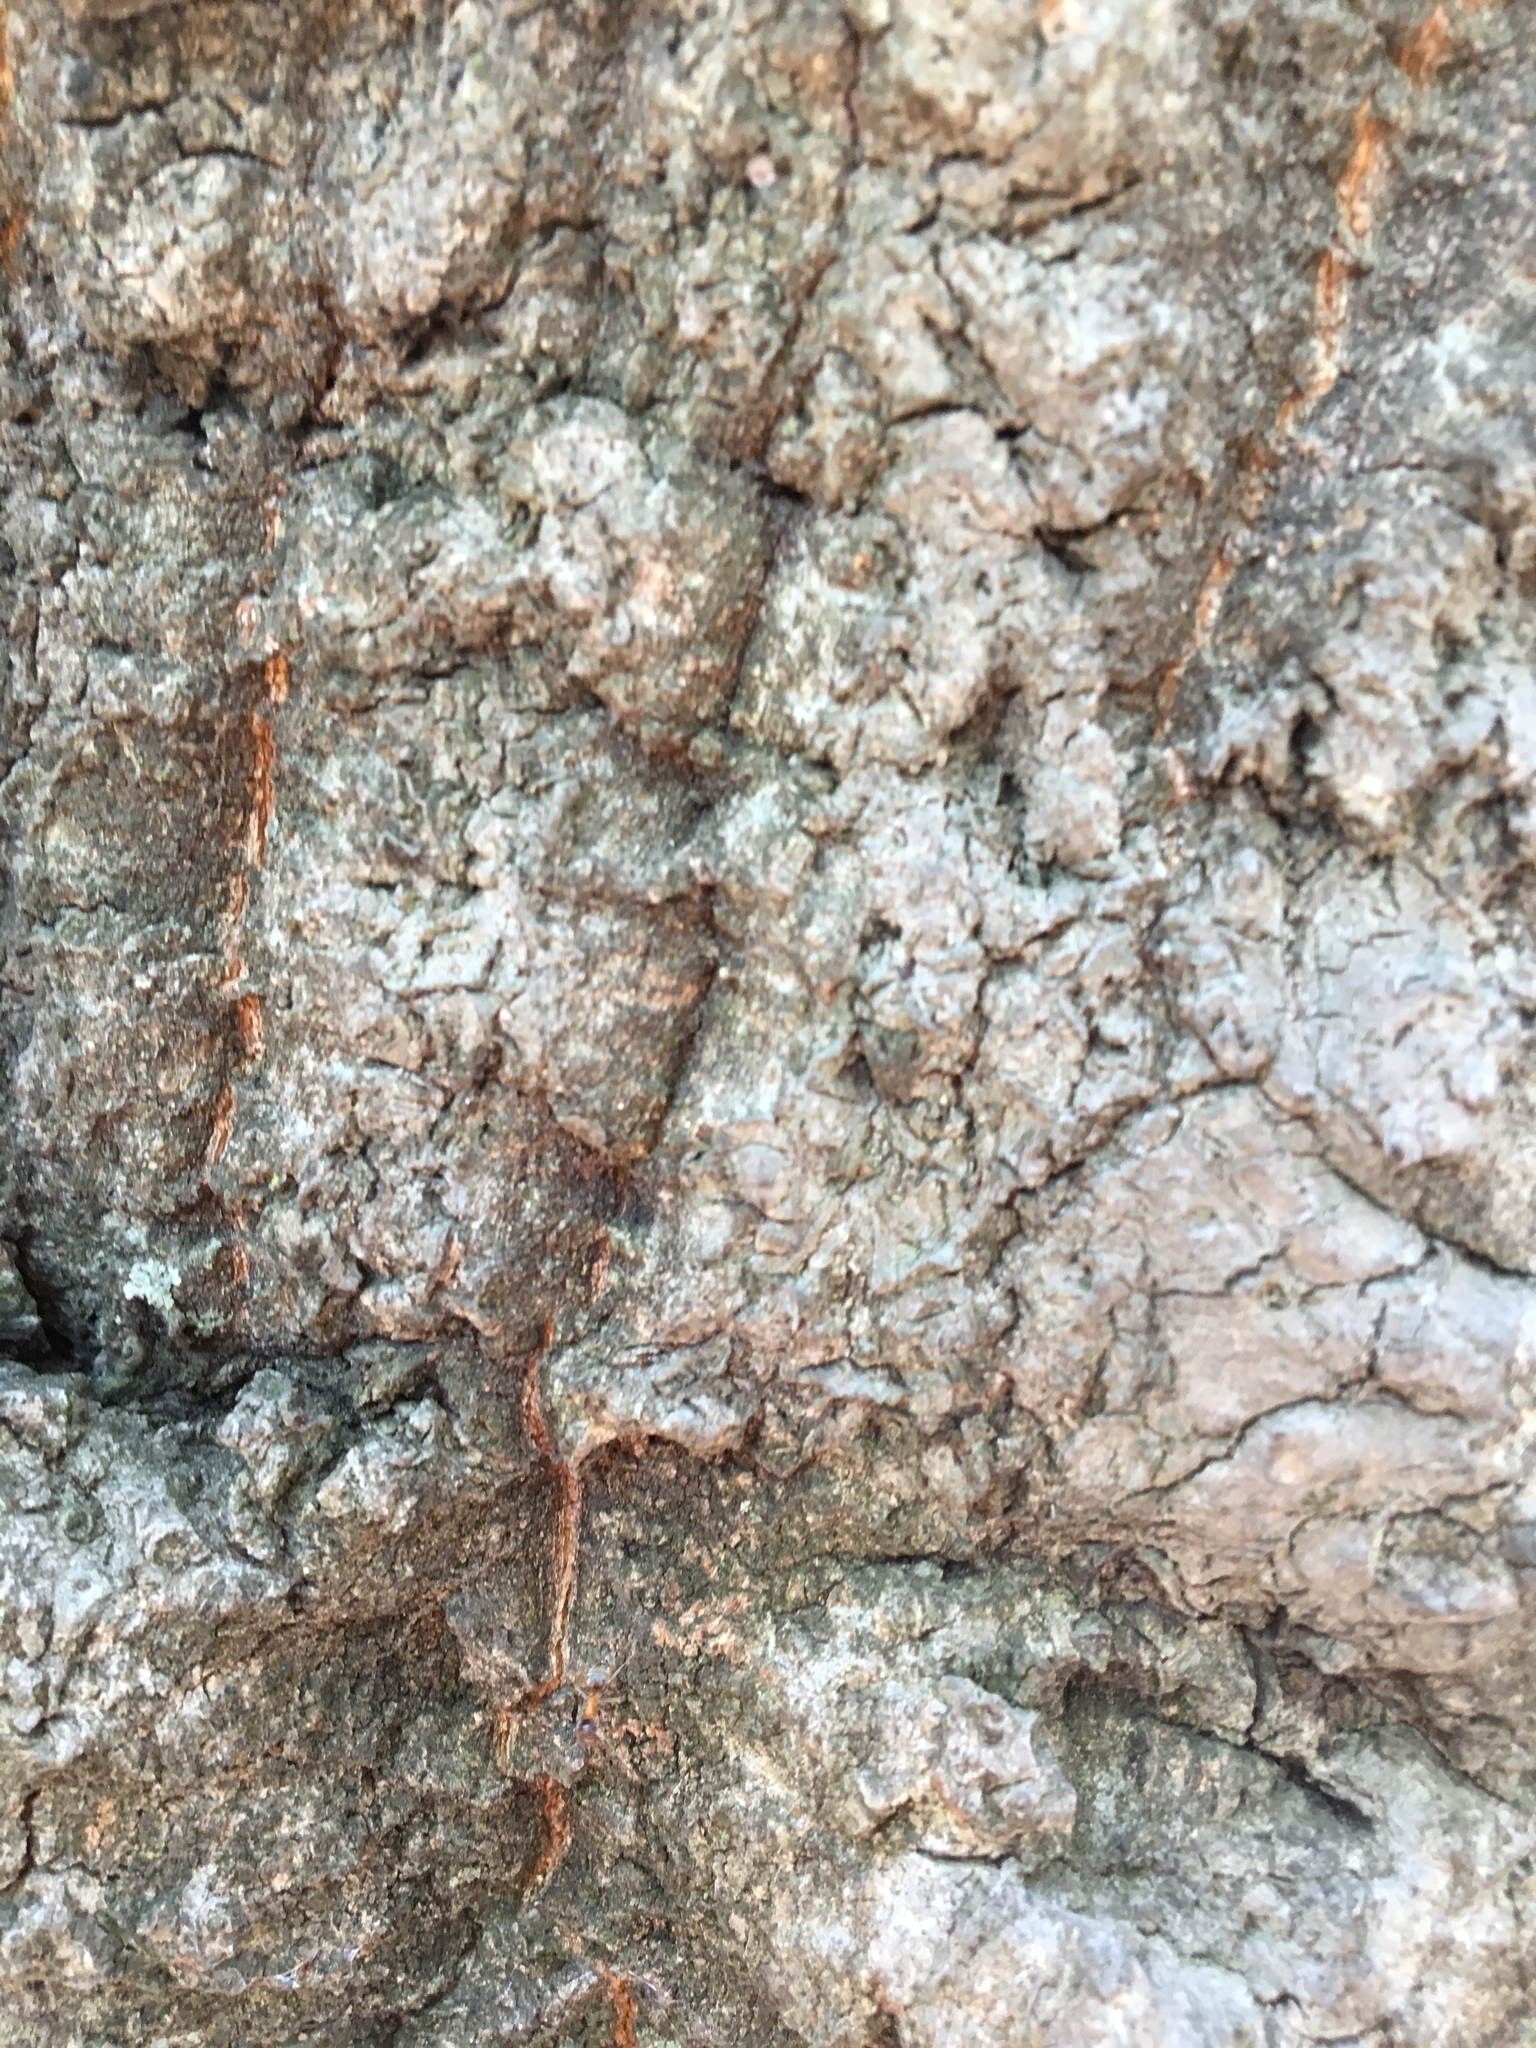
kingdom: Animalia
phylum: Arthropoda
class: Insecta
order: Hymenoptera
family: Formicidae
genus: Liometopum
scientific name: Liometopum occidentale
